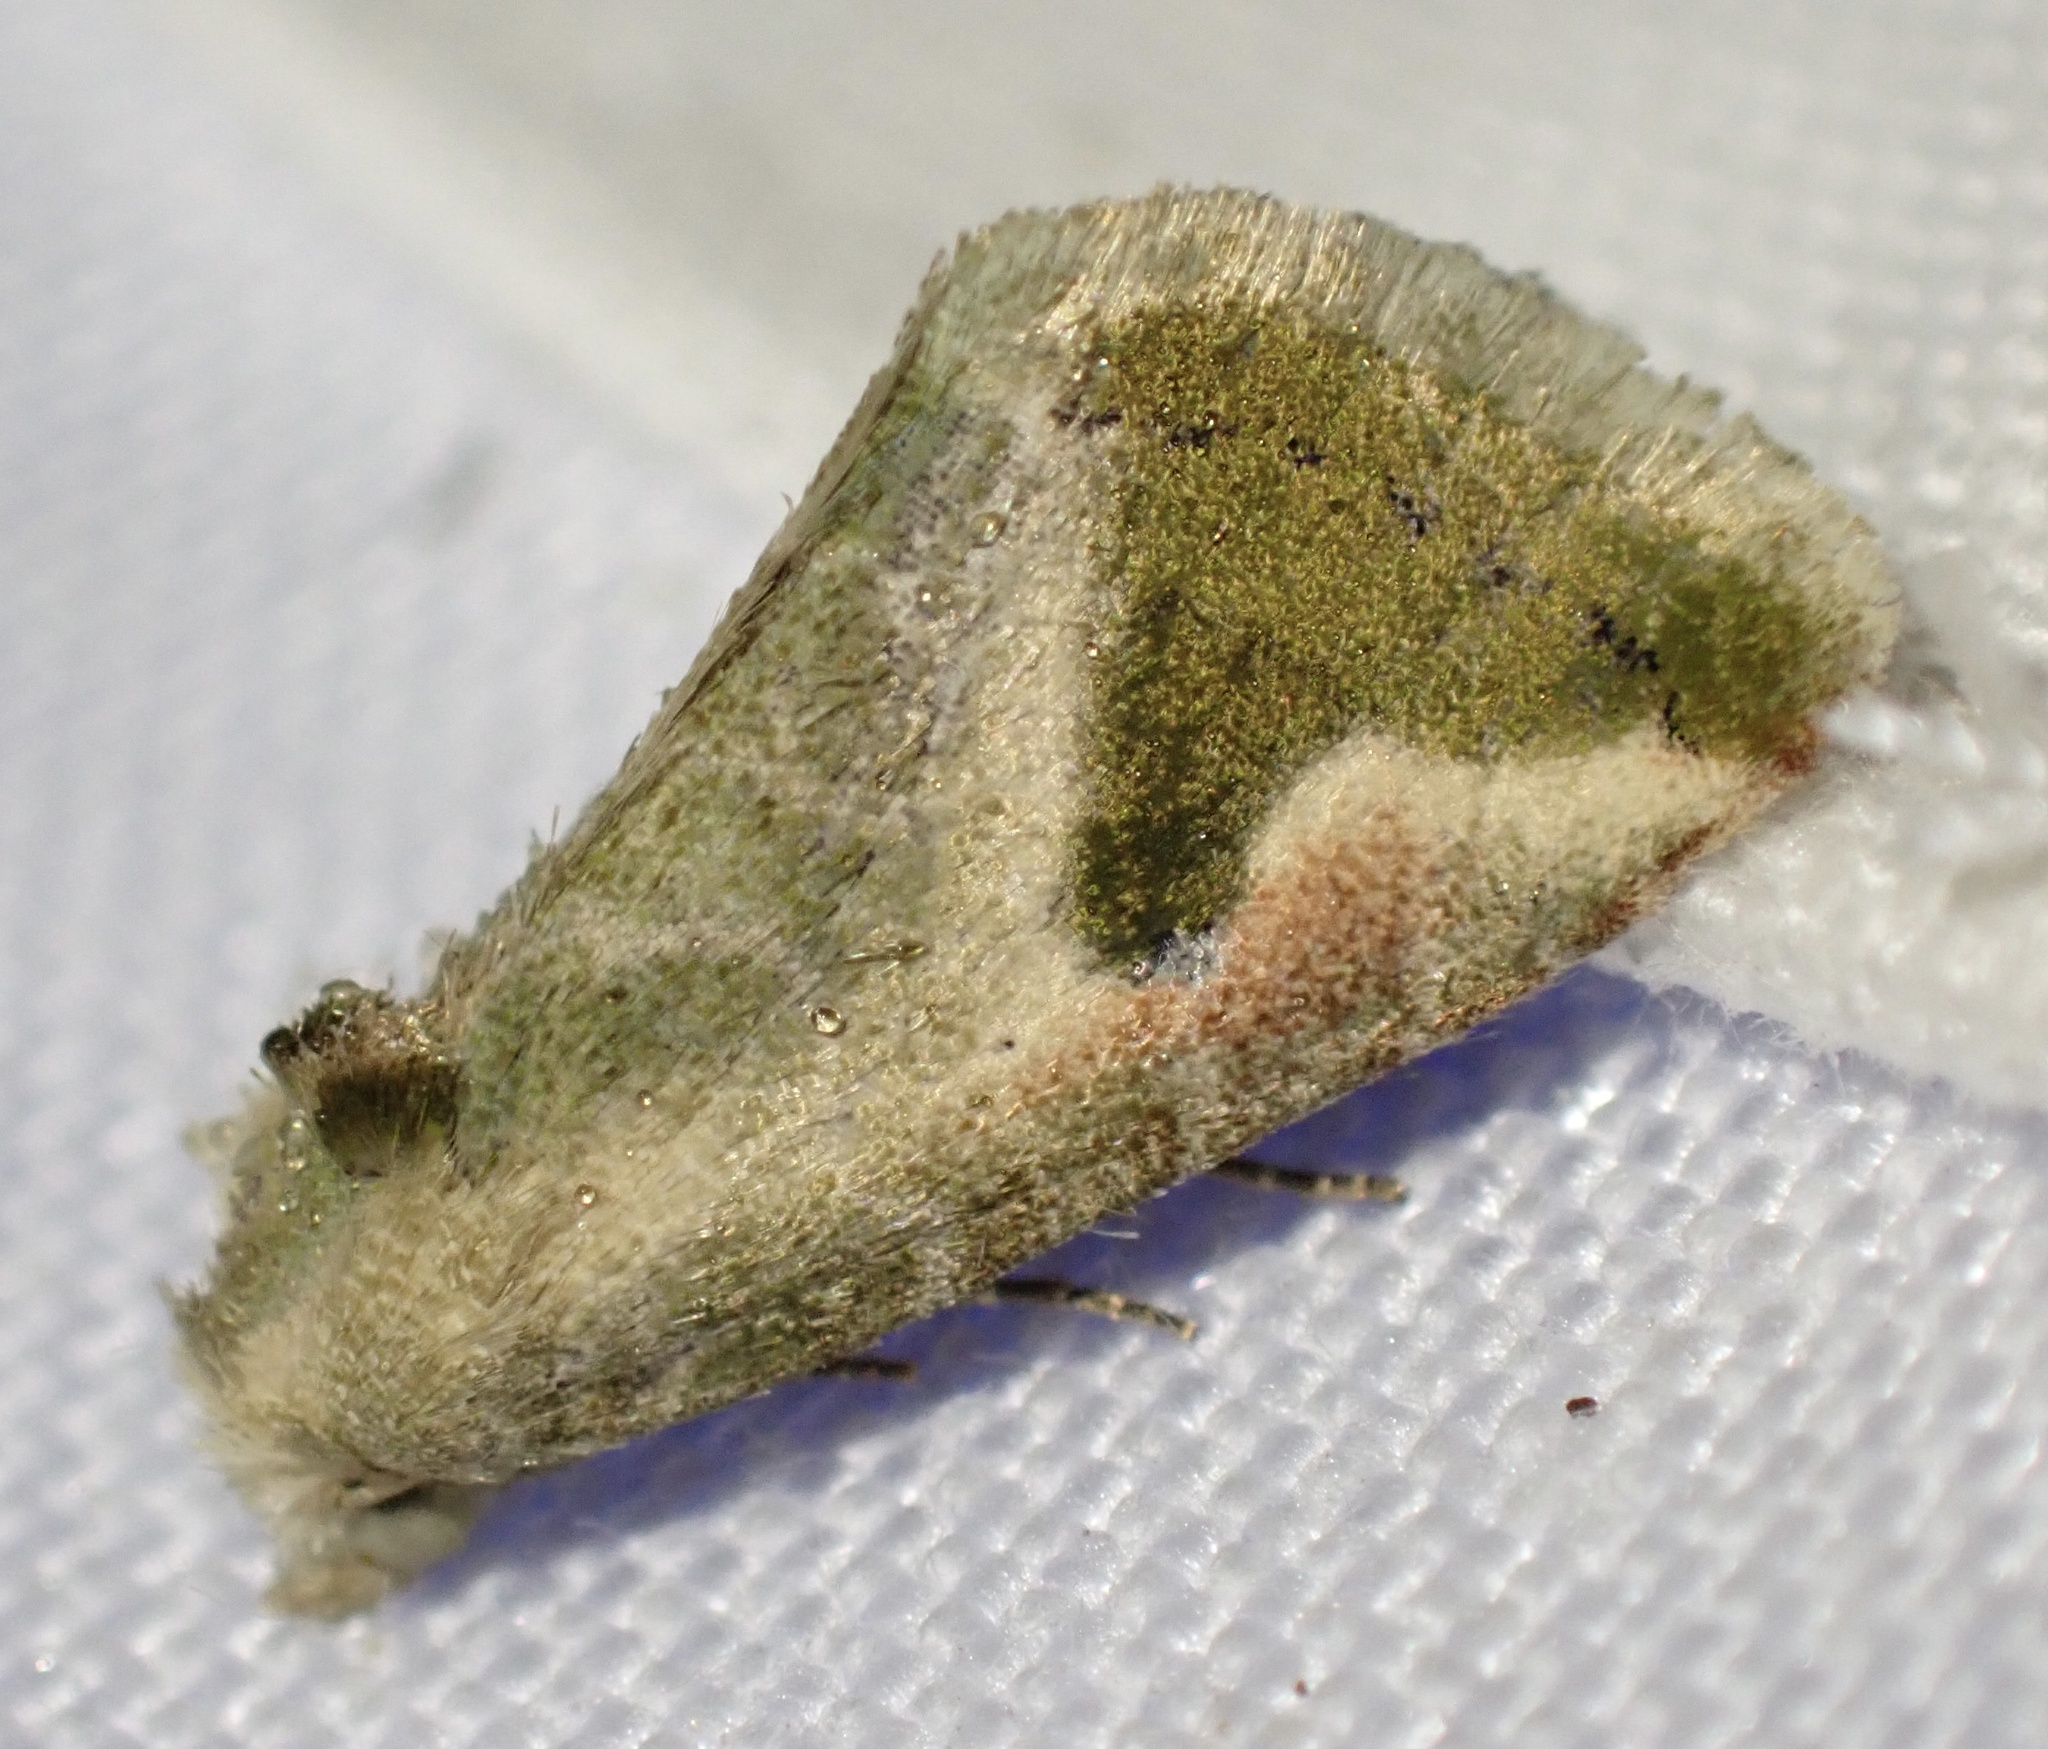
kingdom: Animalia
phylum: Arthropoda
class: Insecta
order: Lepidoptera
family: Noctuidae
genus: Autoba
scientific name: Autoba admota
